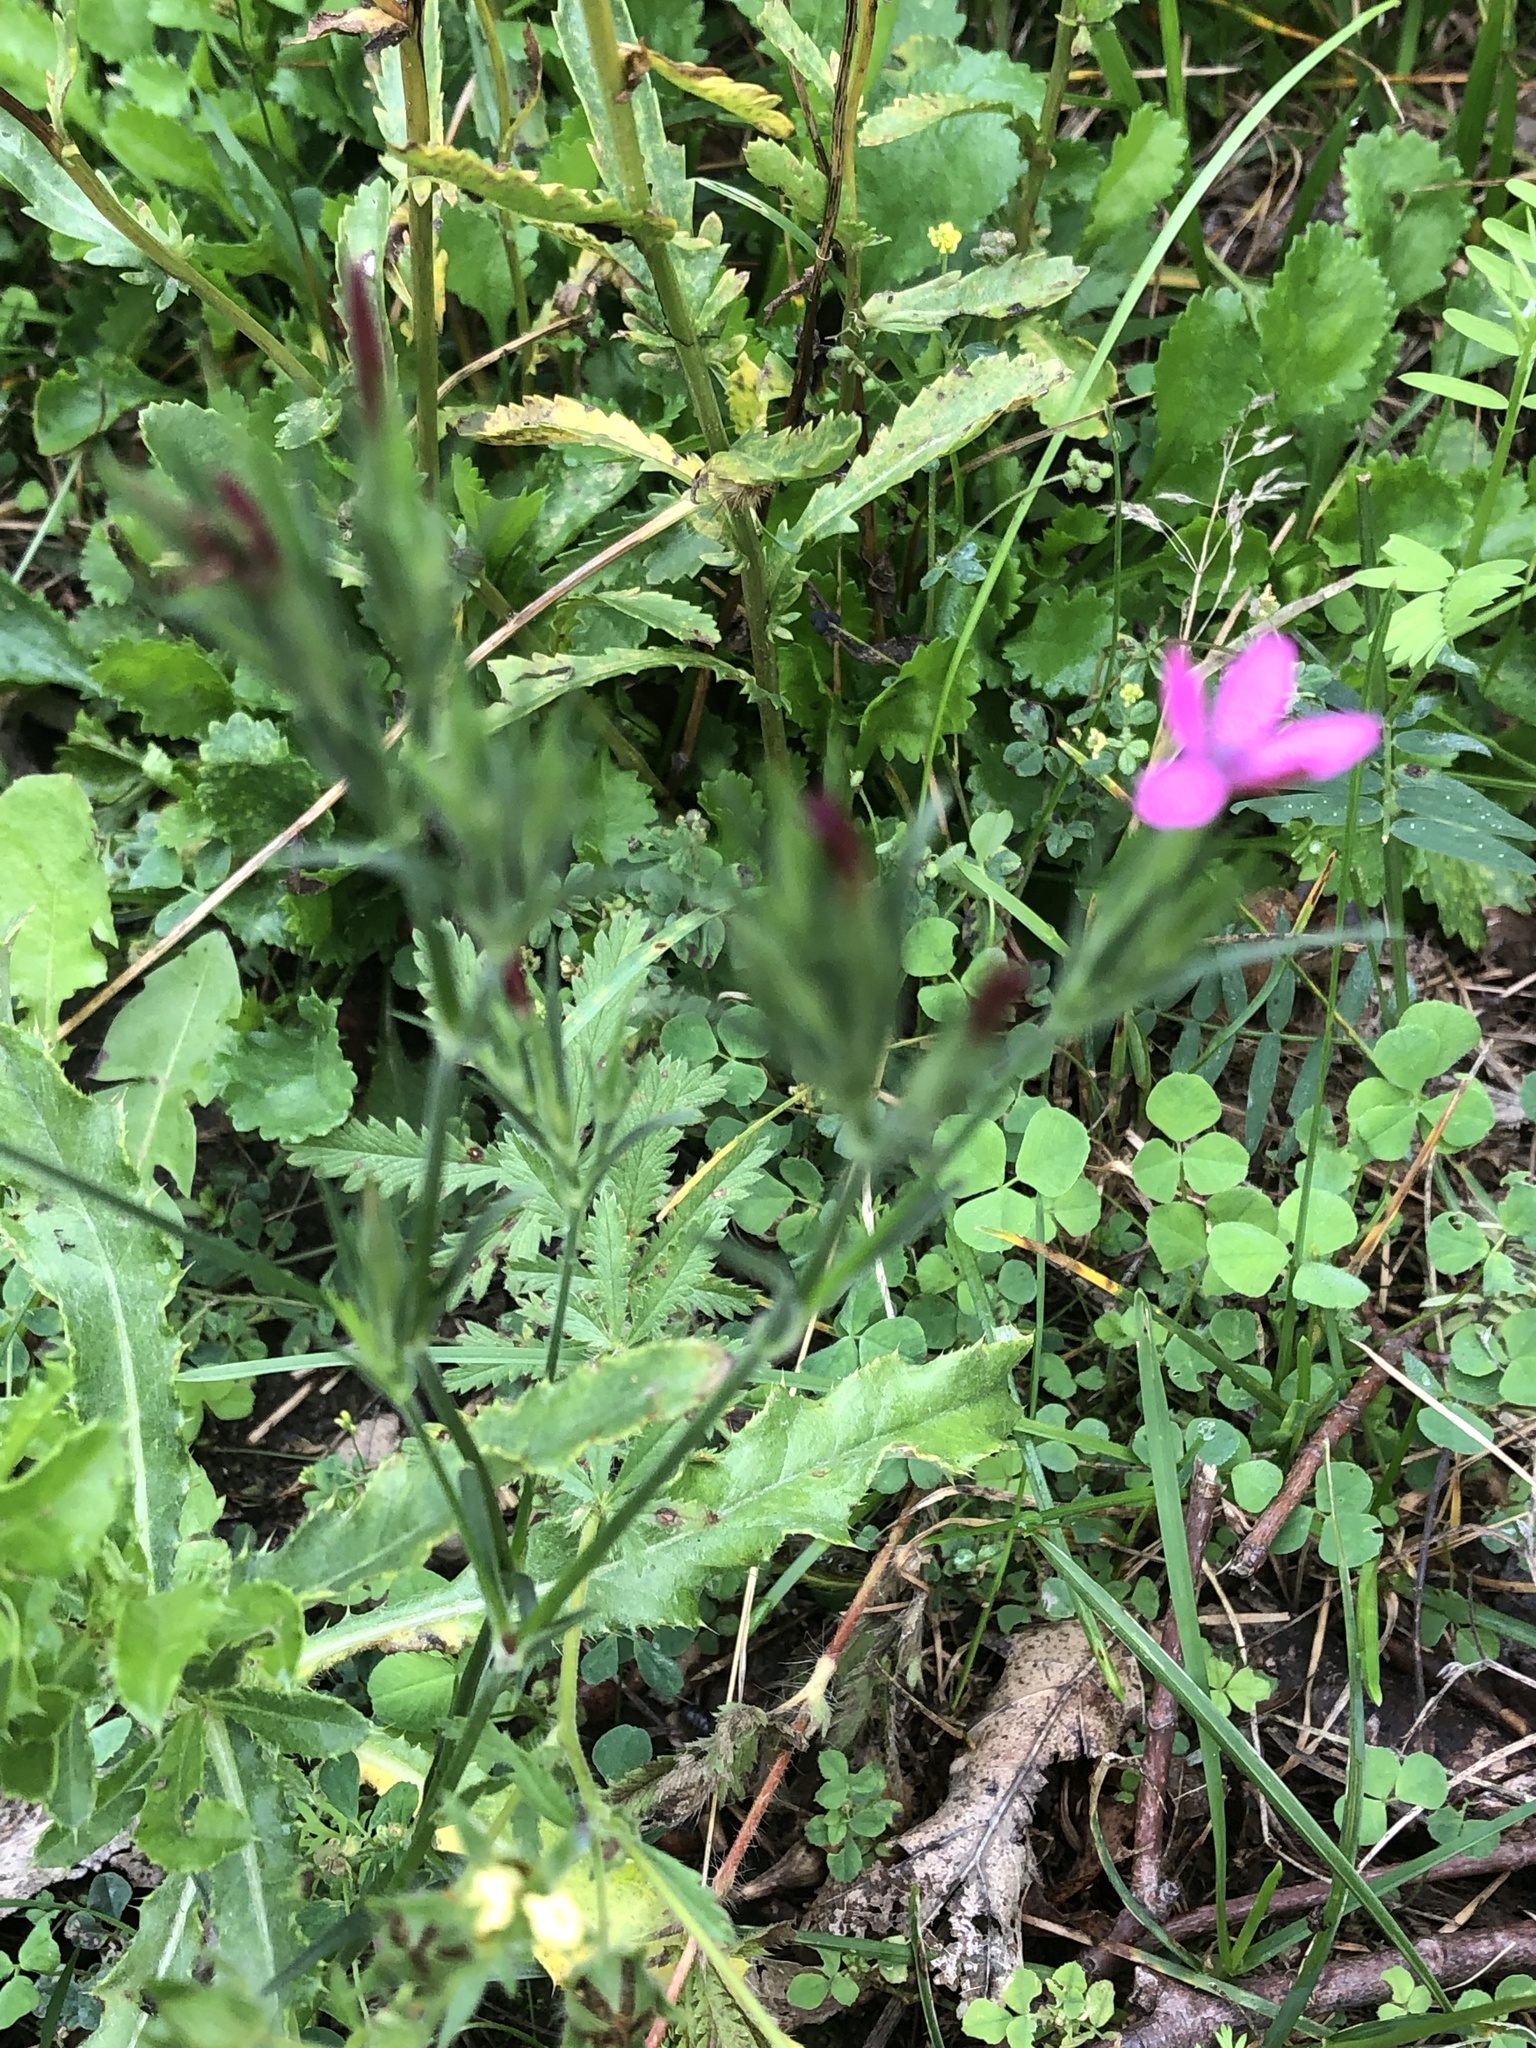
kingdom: Plantae
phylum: Tracheophyta
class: Magnoliopsida
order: Caryophyllales
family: Caryophyllaceae
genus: Dianthus
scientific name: Dianthus armeria
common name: Deptford pink
